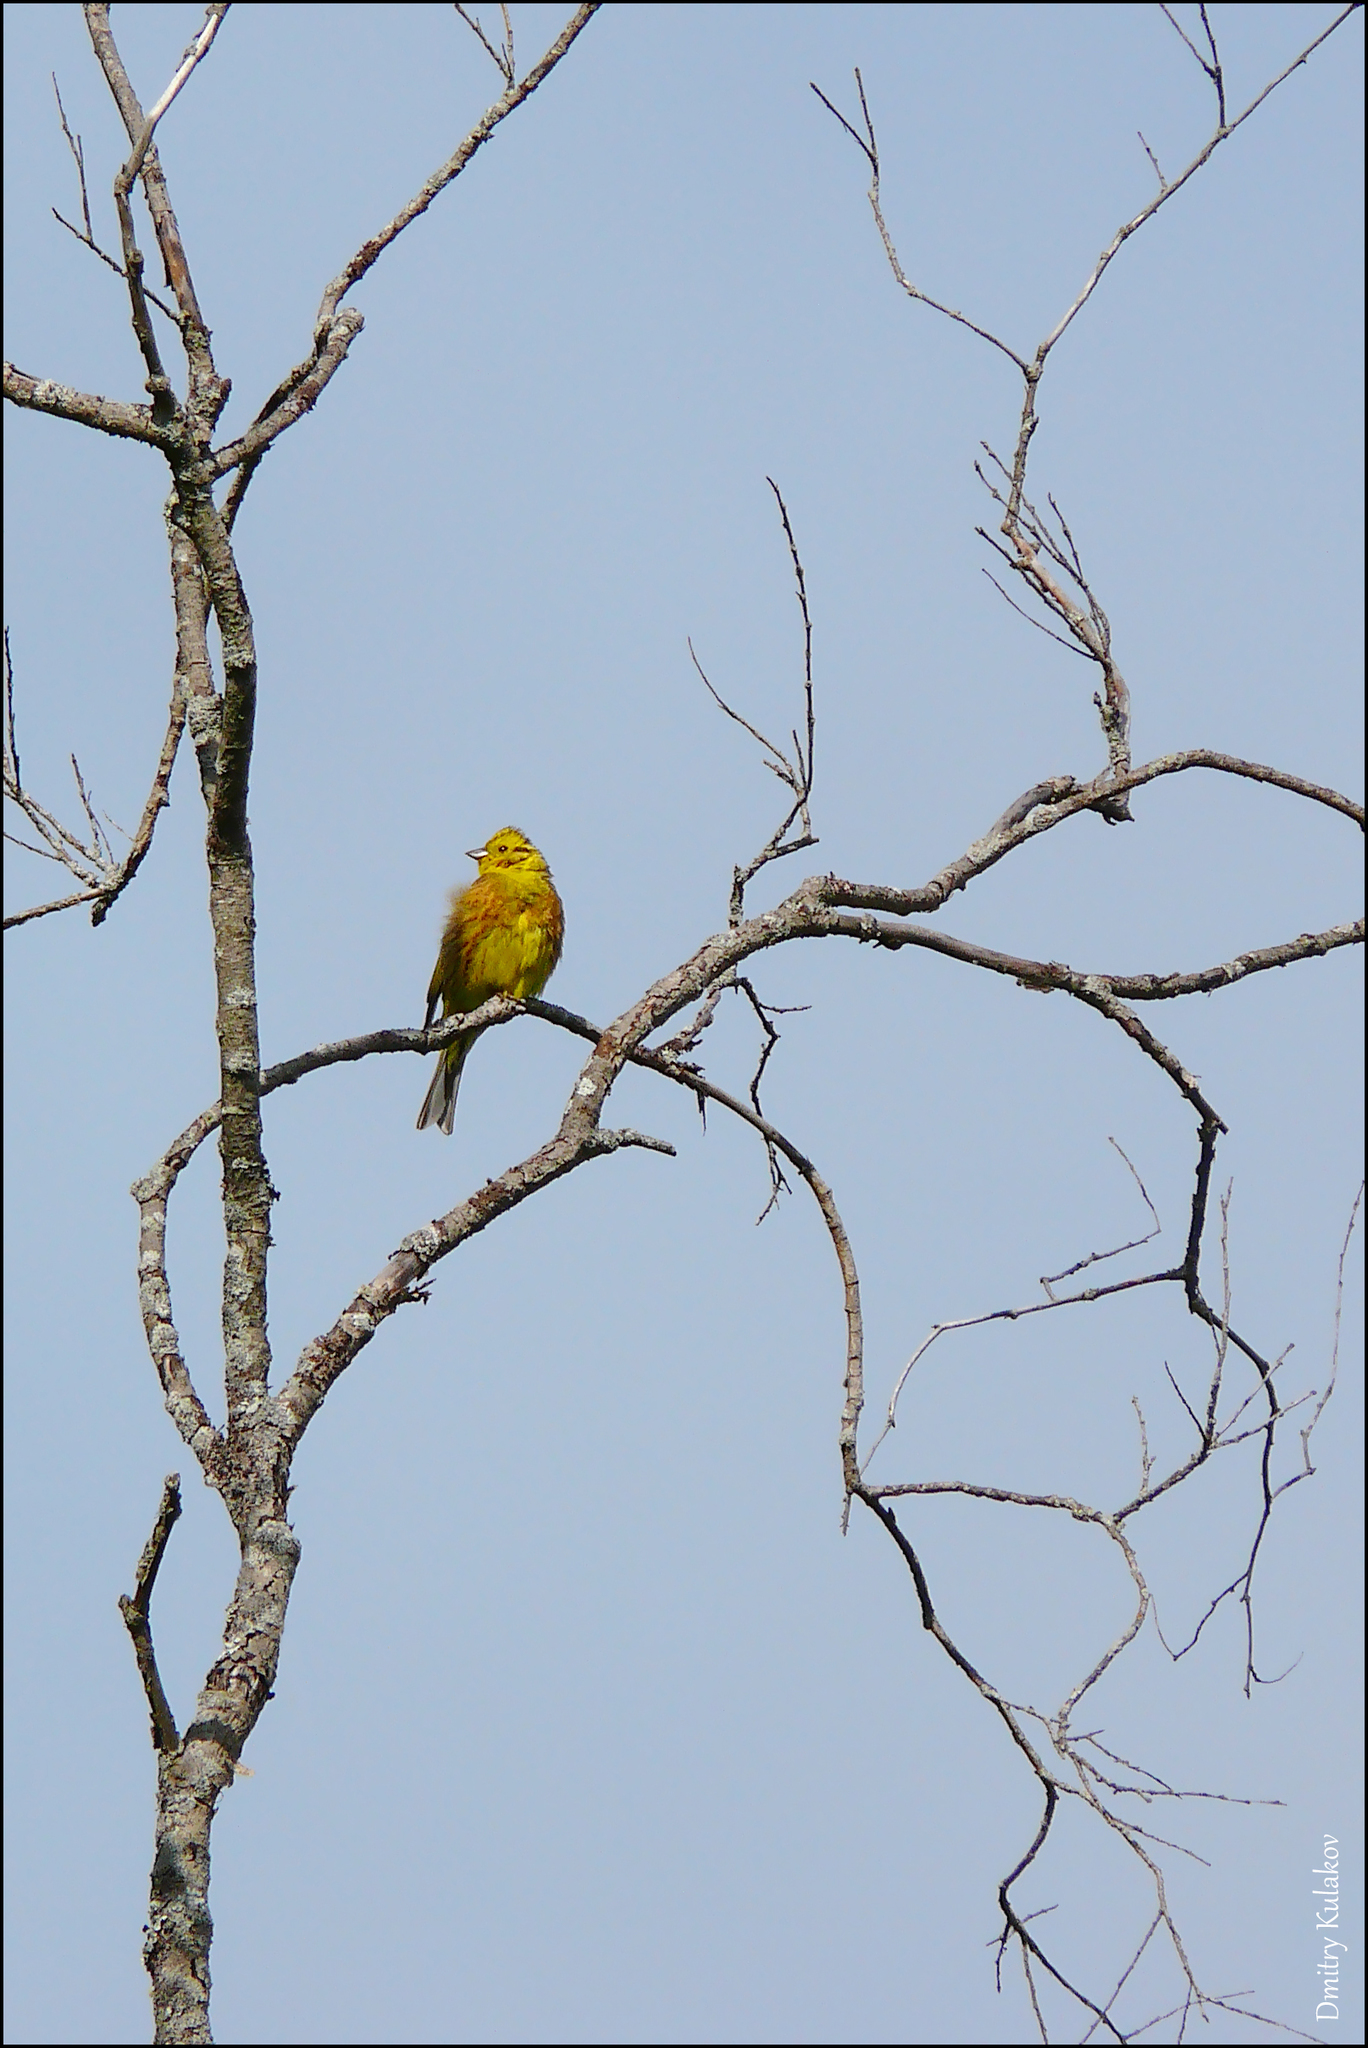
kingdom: Animalia
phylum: Chordata
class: Aves
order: Passeriformes
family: Emberizidae
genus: Emberiza
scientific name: Emberiza citrinella
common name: Yellowhammer
